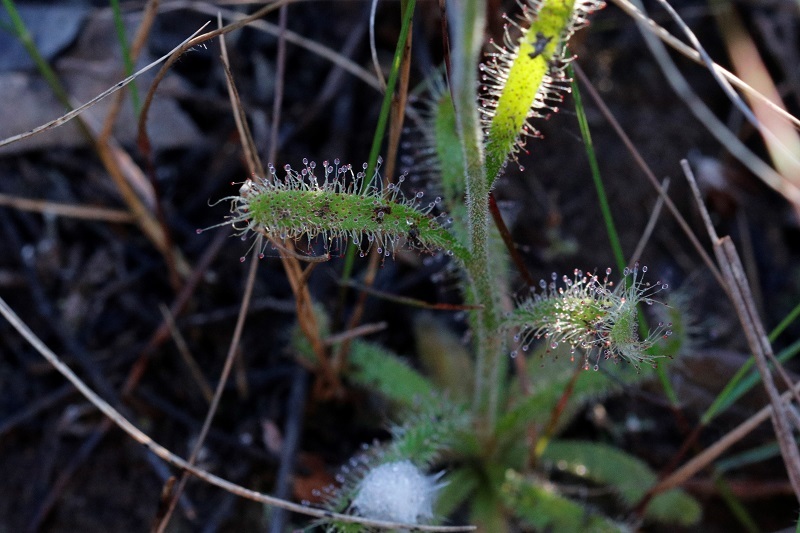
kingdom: Plantae
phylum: Tracheophyta
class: Magnoliopsida
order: Caryophyllales
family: Droseraceae
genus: Drosera
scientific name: Drosera cistiflora
